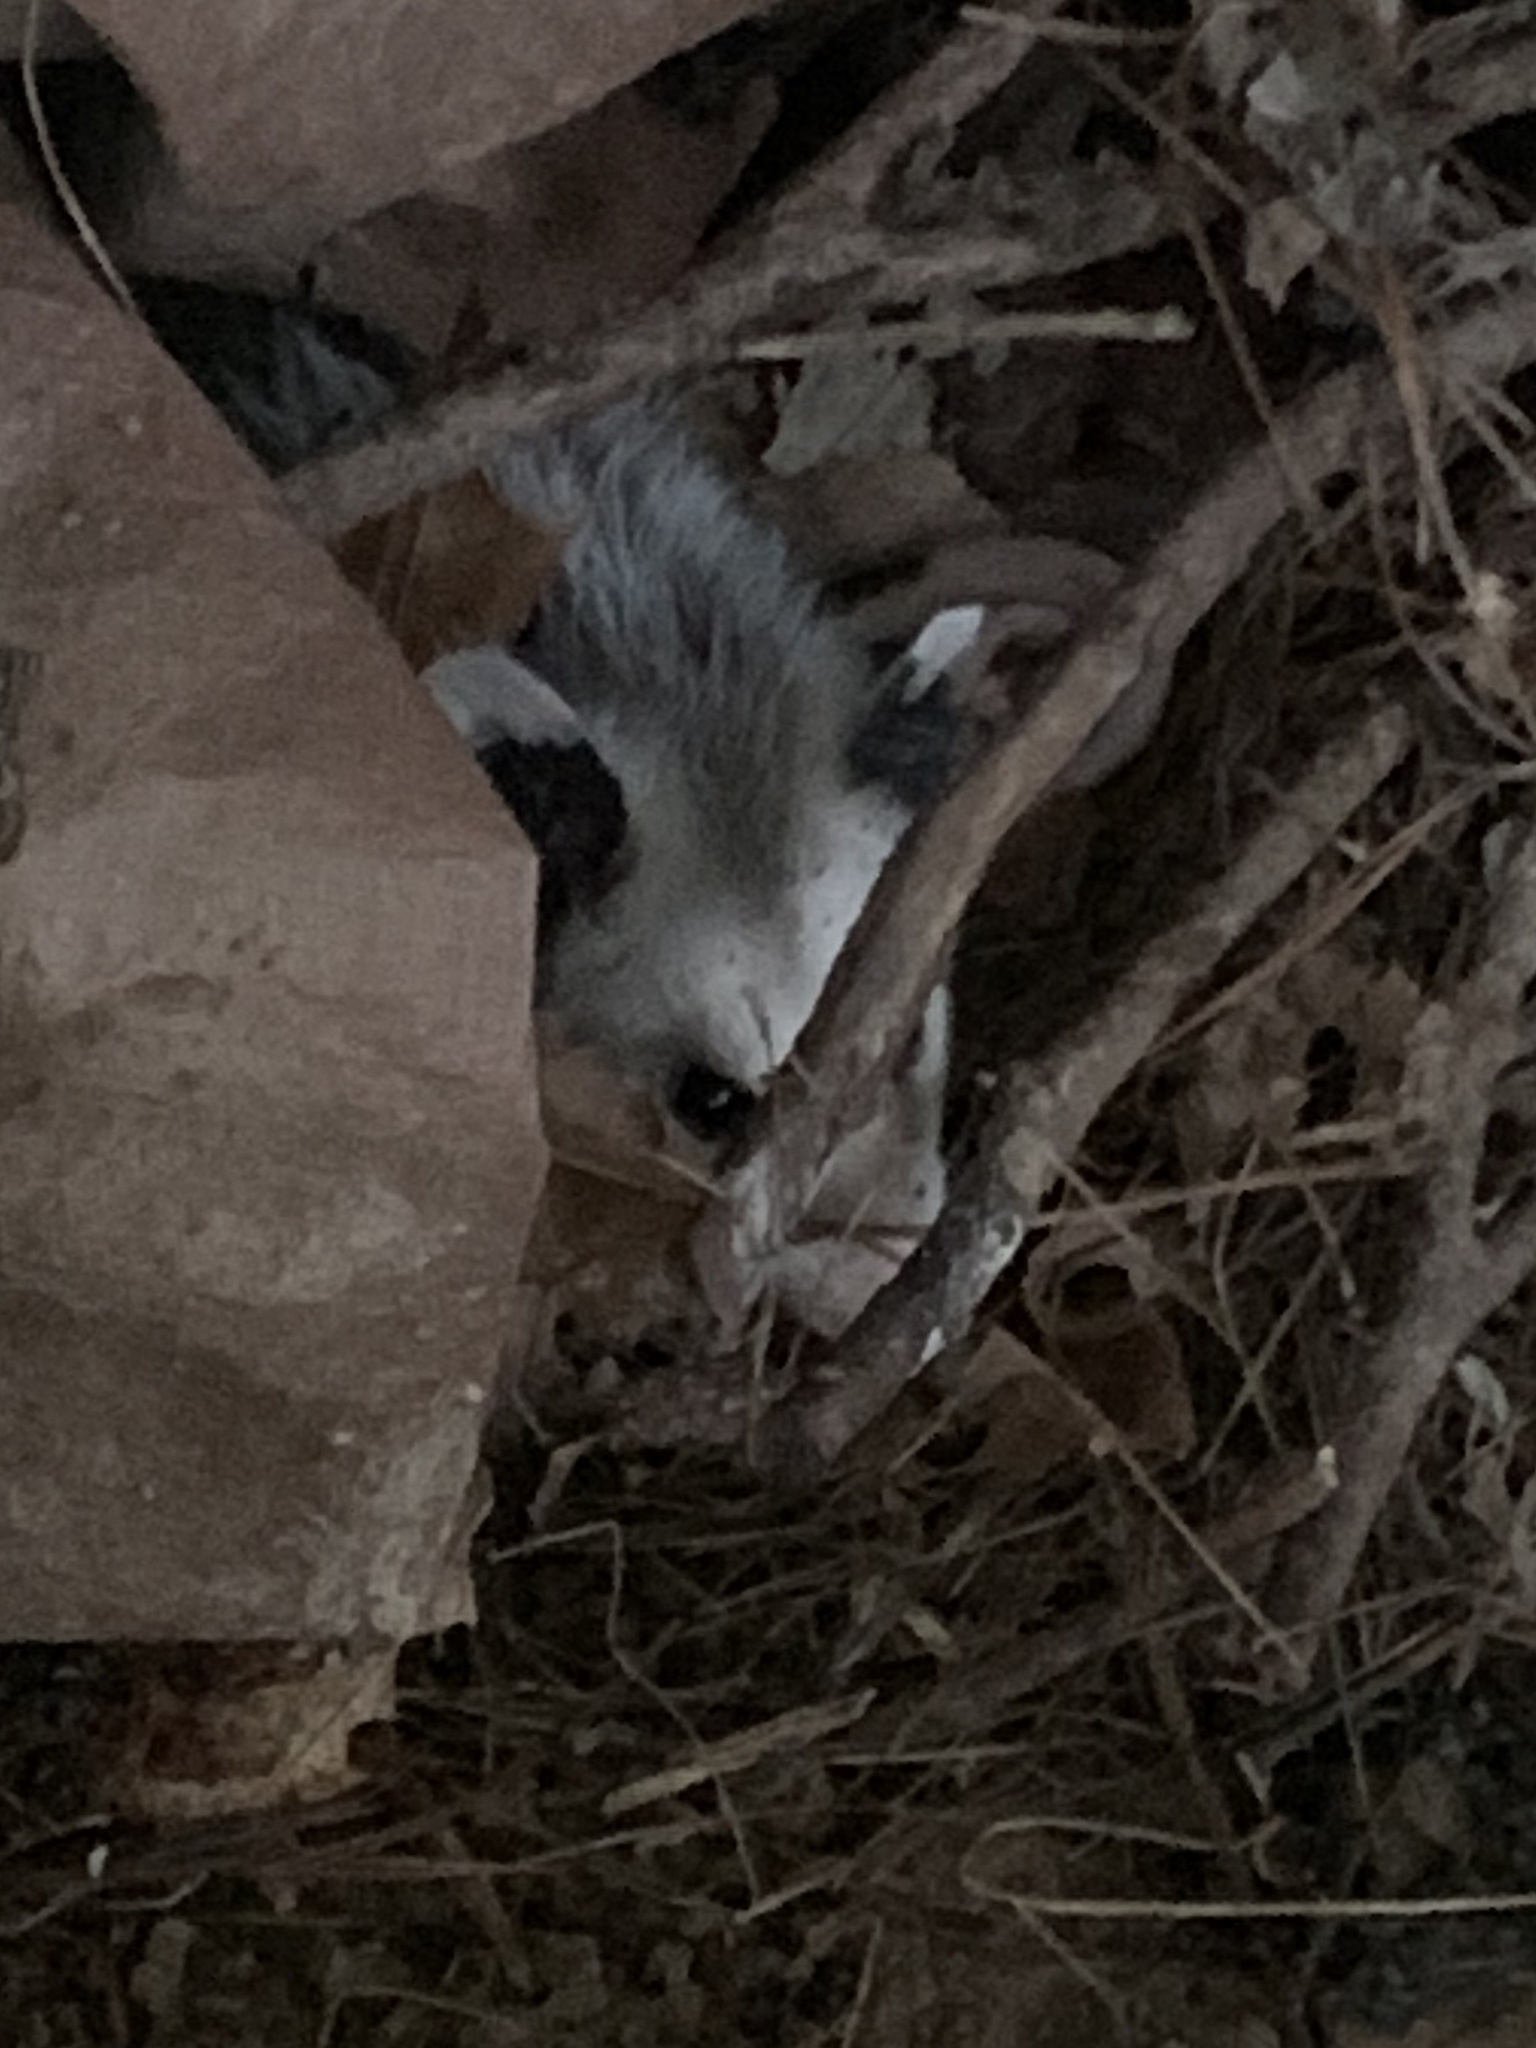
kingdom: Animalia
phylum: Chordata
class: Mammalia
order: Didelphimorphia
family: Didelphidae
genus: Didelphis
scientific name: Didelphis virginiana
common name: Virginia opossum
